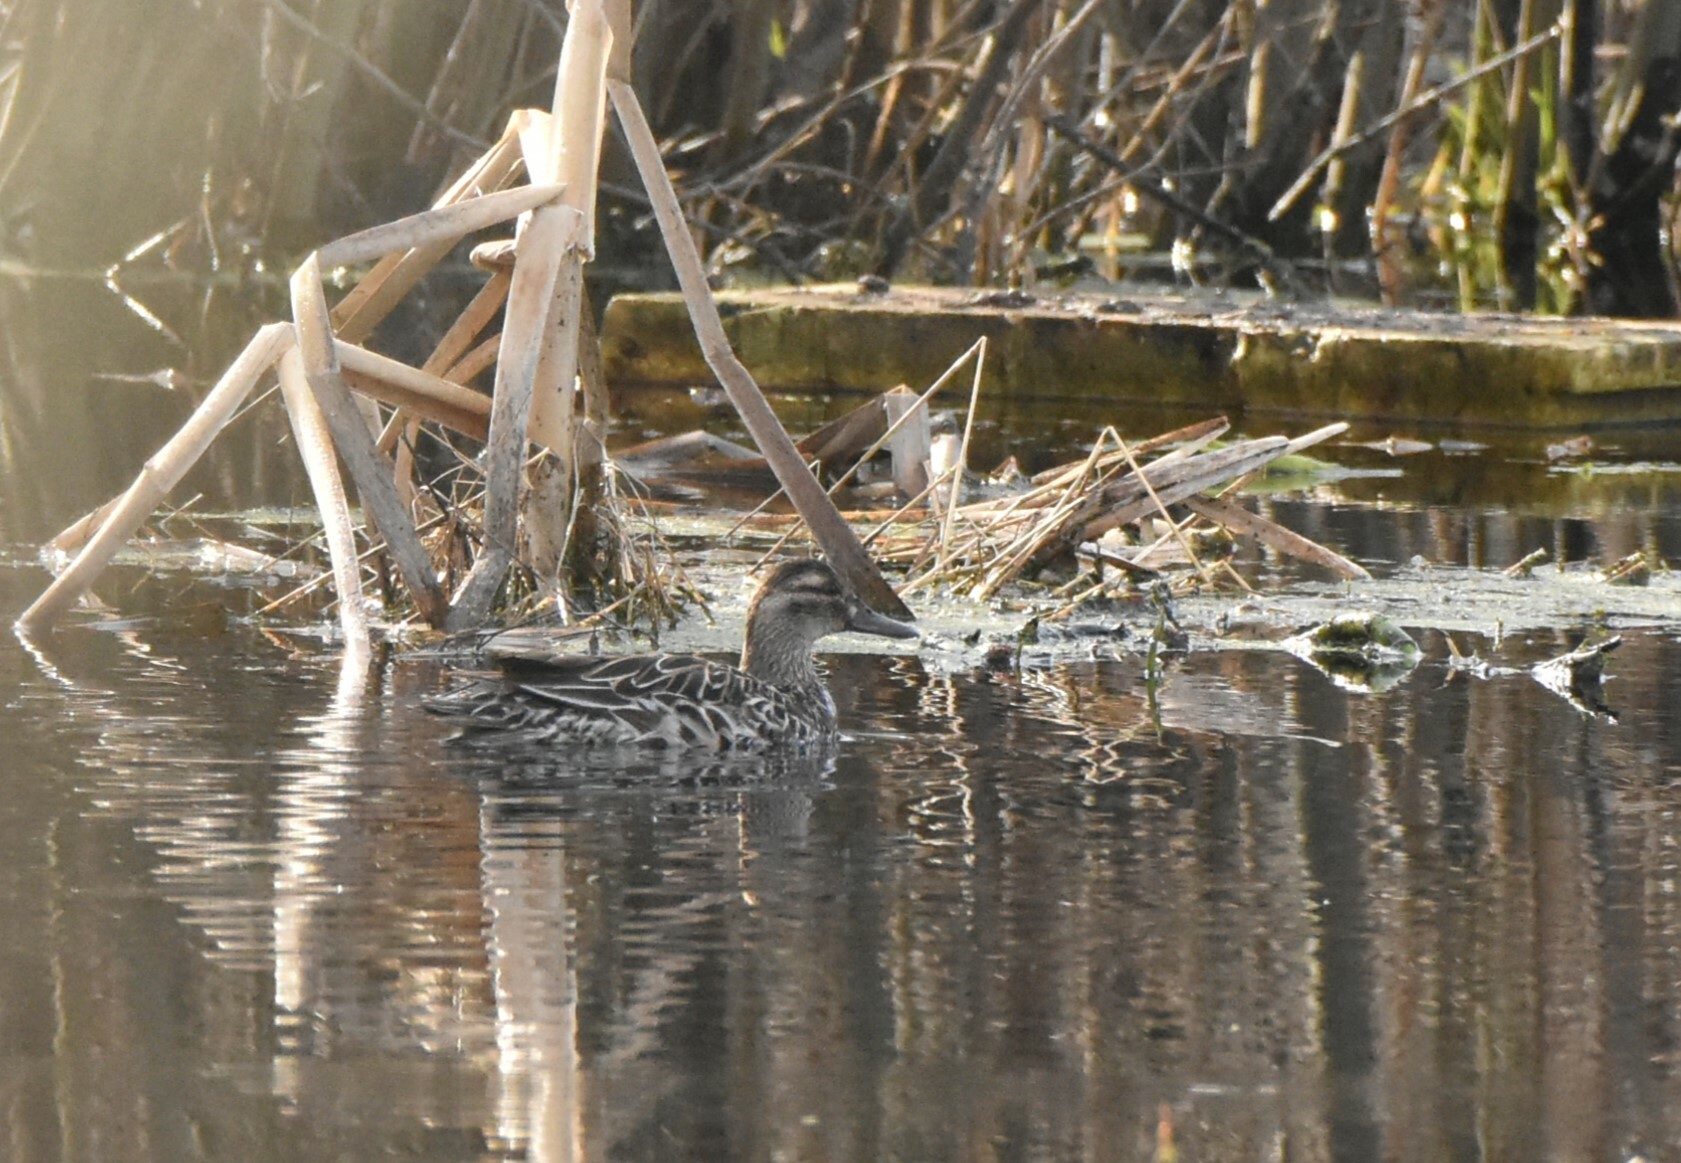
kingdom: Animalia
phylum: Chordata
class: Aves
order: Anseriformes
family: Anatidae
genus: Spatula
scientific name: Spatula querquedula
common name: Garganey
